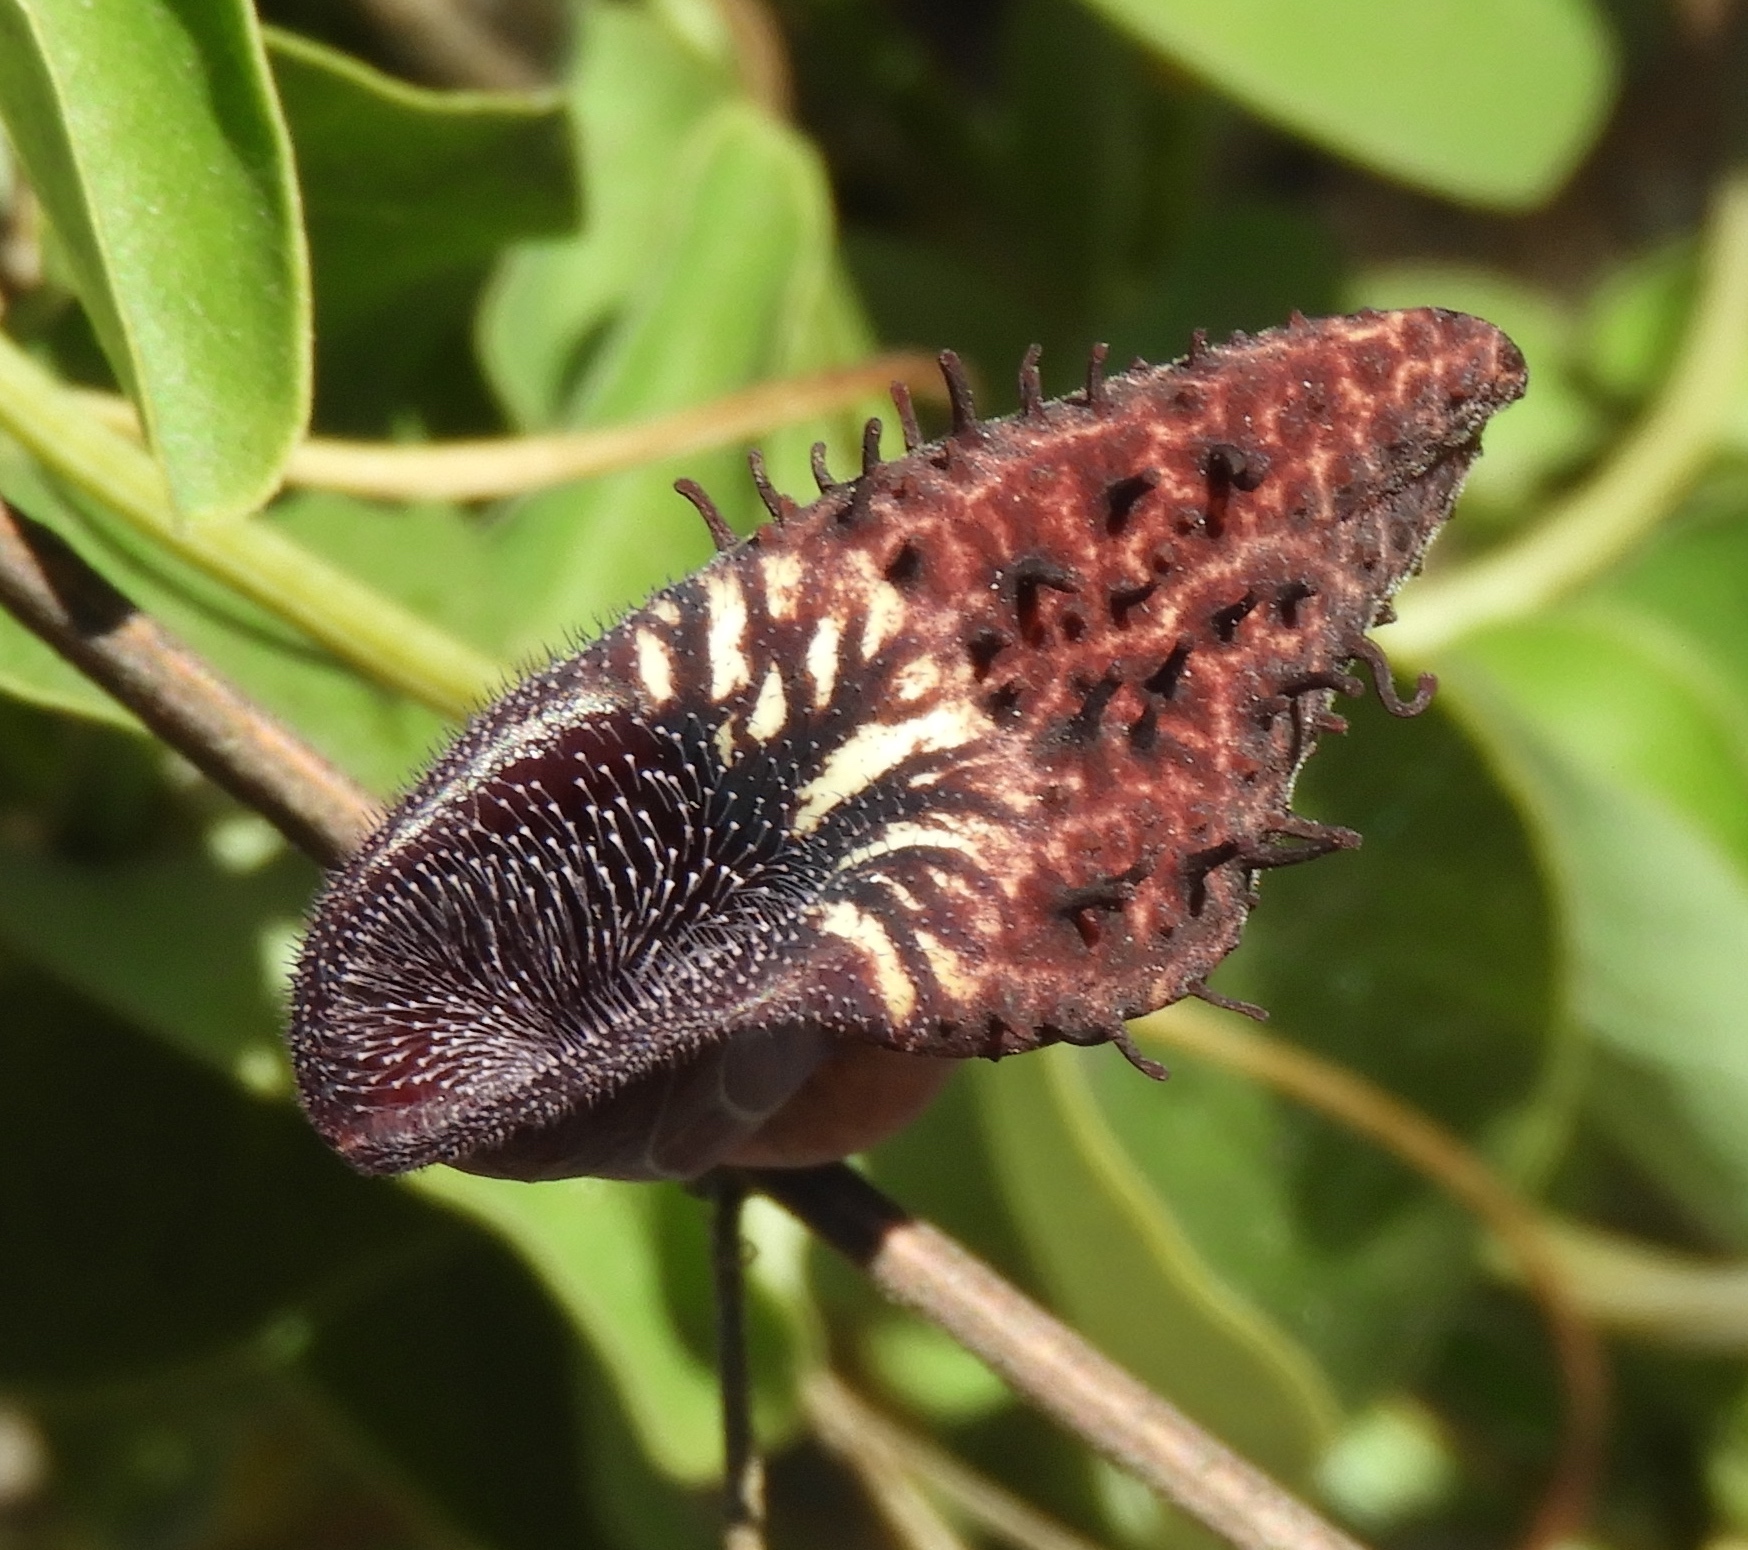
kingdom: Plantae
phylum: Tracheophyta
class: Magnoliopsida
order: Piperales
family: Aristolochiaceae
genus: Aristolochia
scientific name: Aristolochia taliscana
